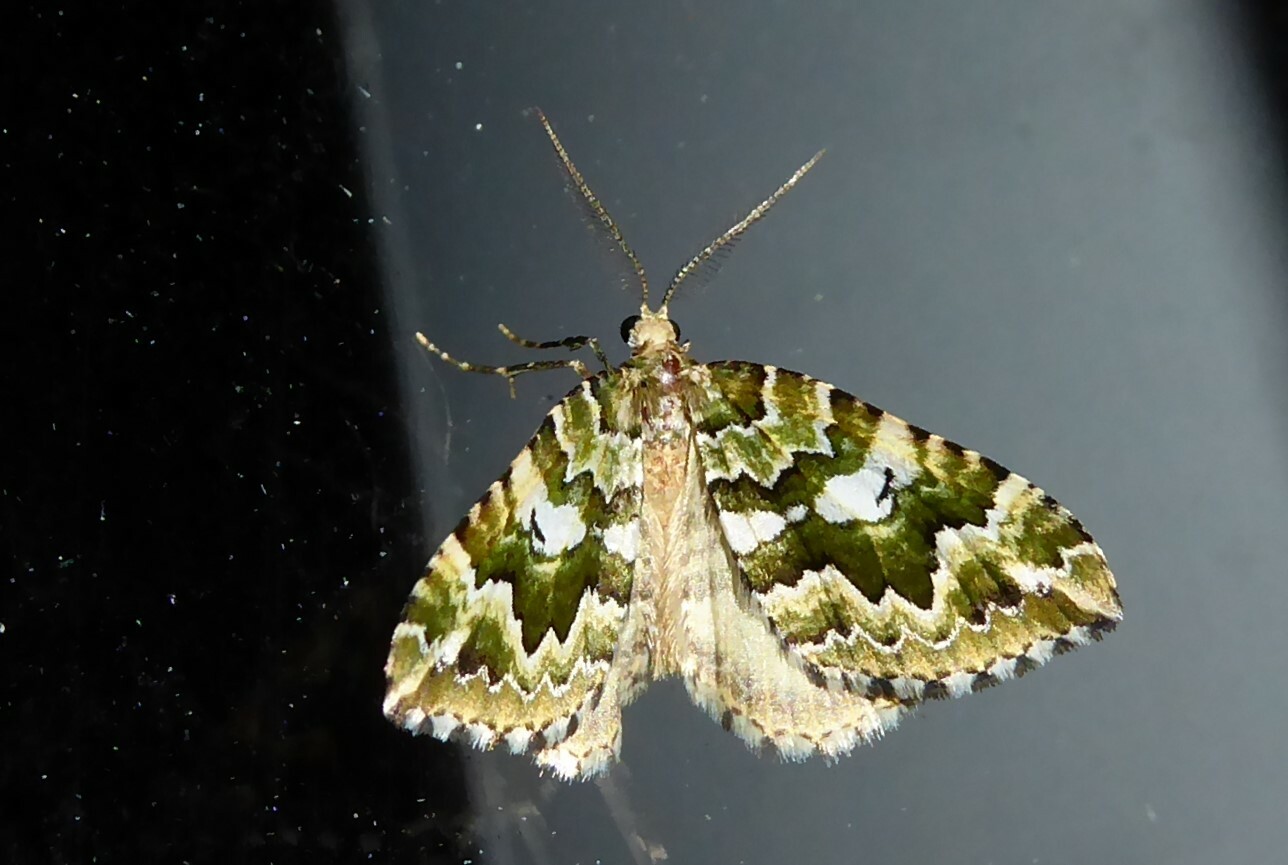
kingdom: Animalia
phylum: Arthropoda
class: Insecta
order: Lepidoptera
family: Geometridae
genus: Asaphodes
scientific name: Asaphodes beata
